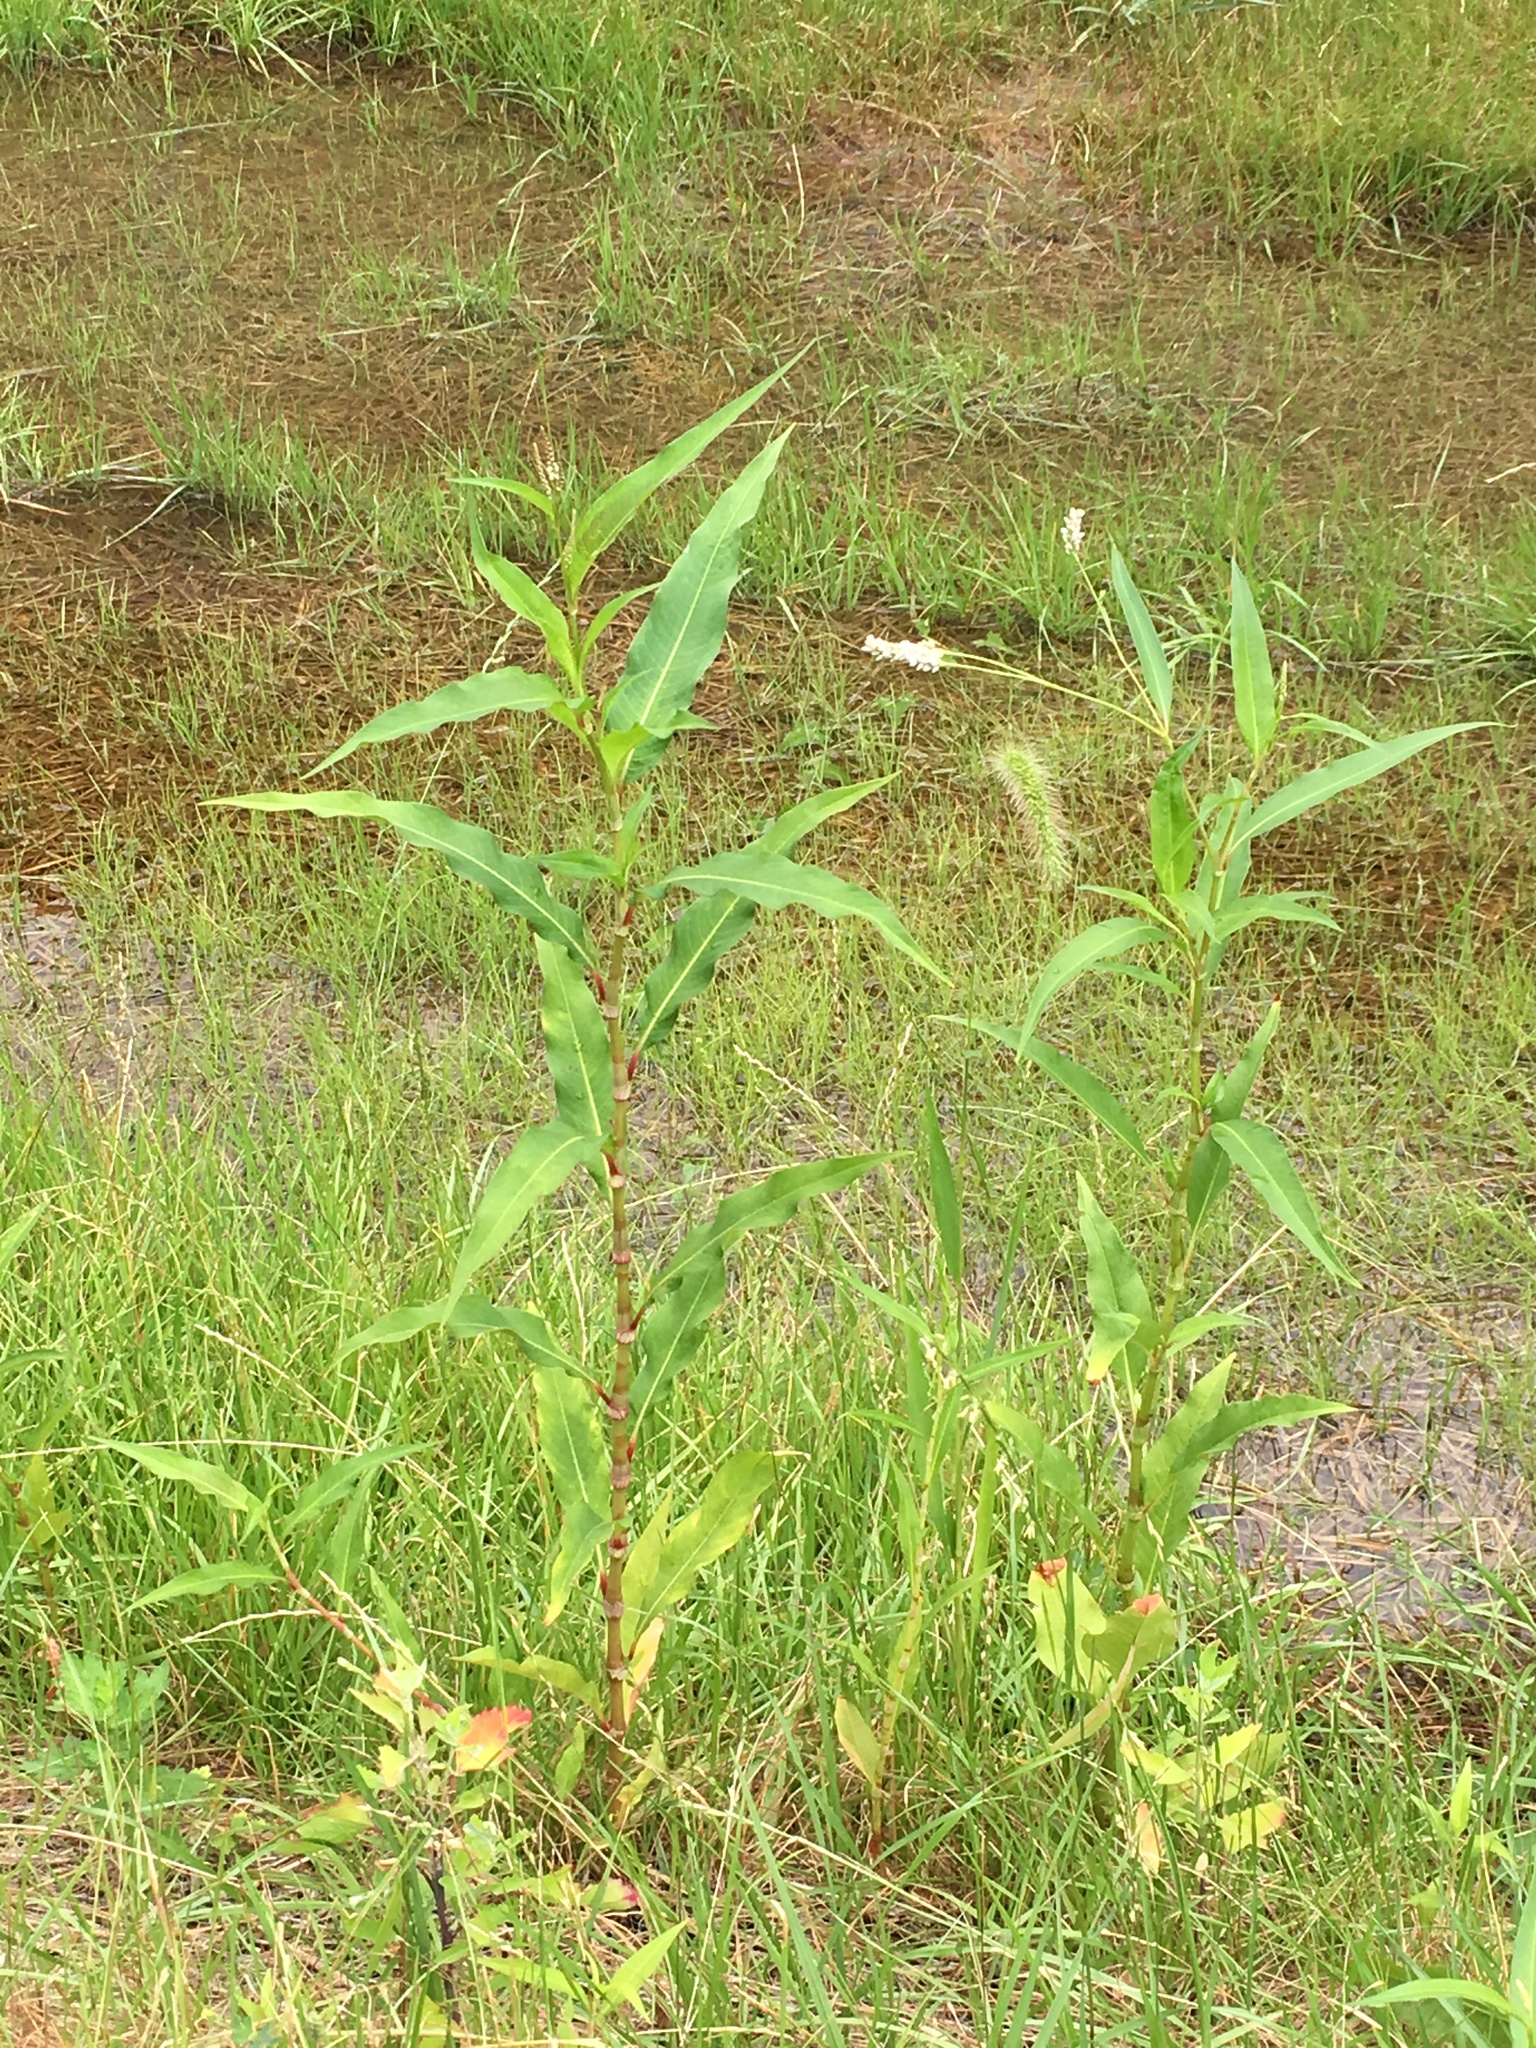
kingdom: Plantae
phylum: Tracheophyta
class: Magnoliopsida
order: Caryophyllales
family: Polygonaceae
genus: Persicaria
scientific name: Persicaria extremiorientalis
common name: Far-eastern smartweed
